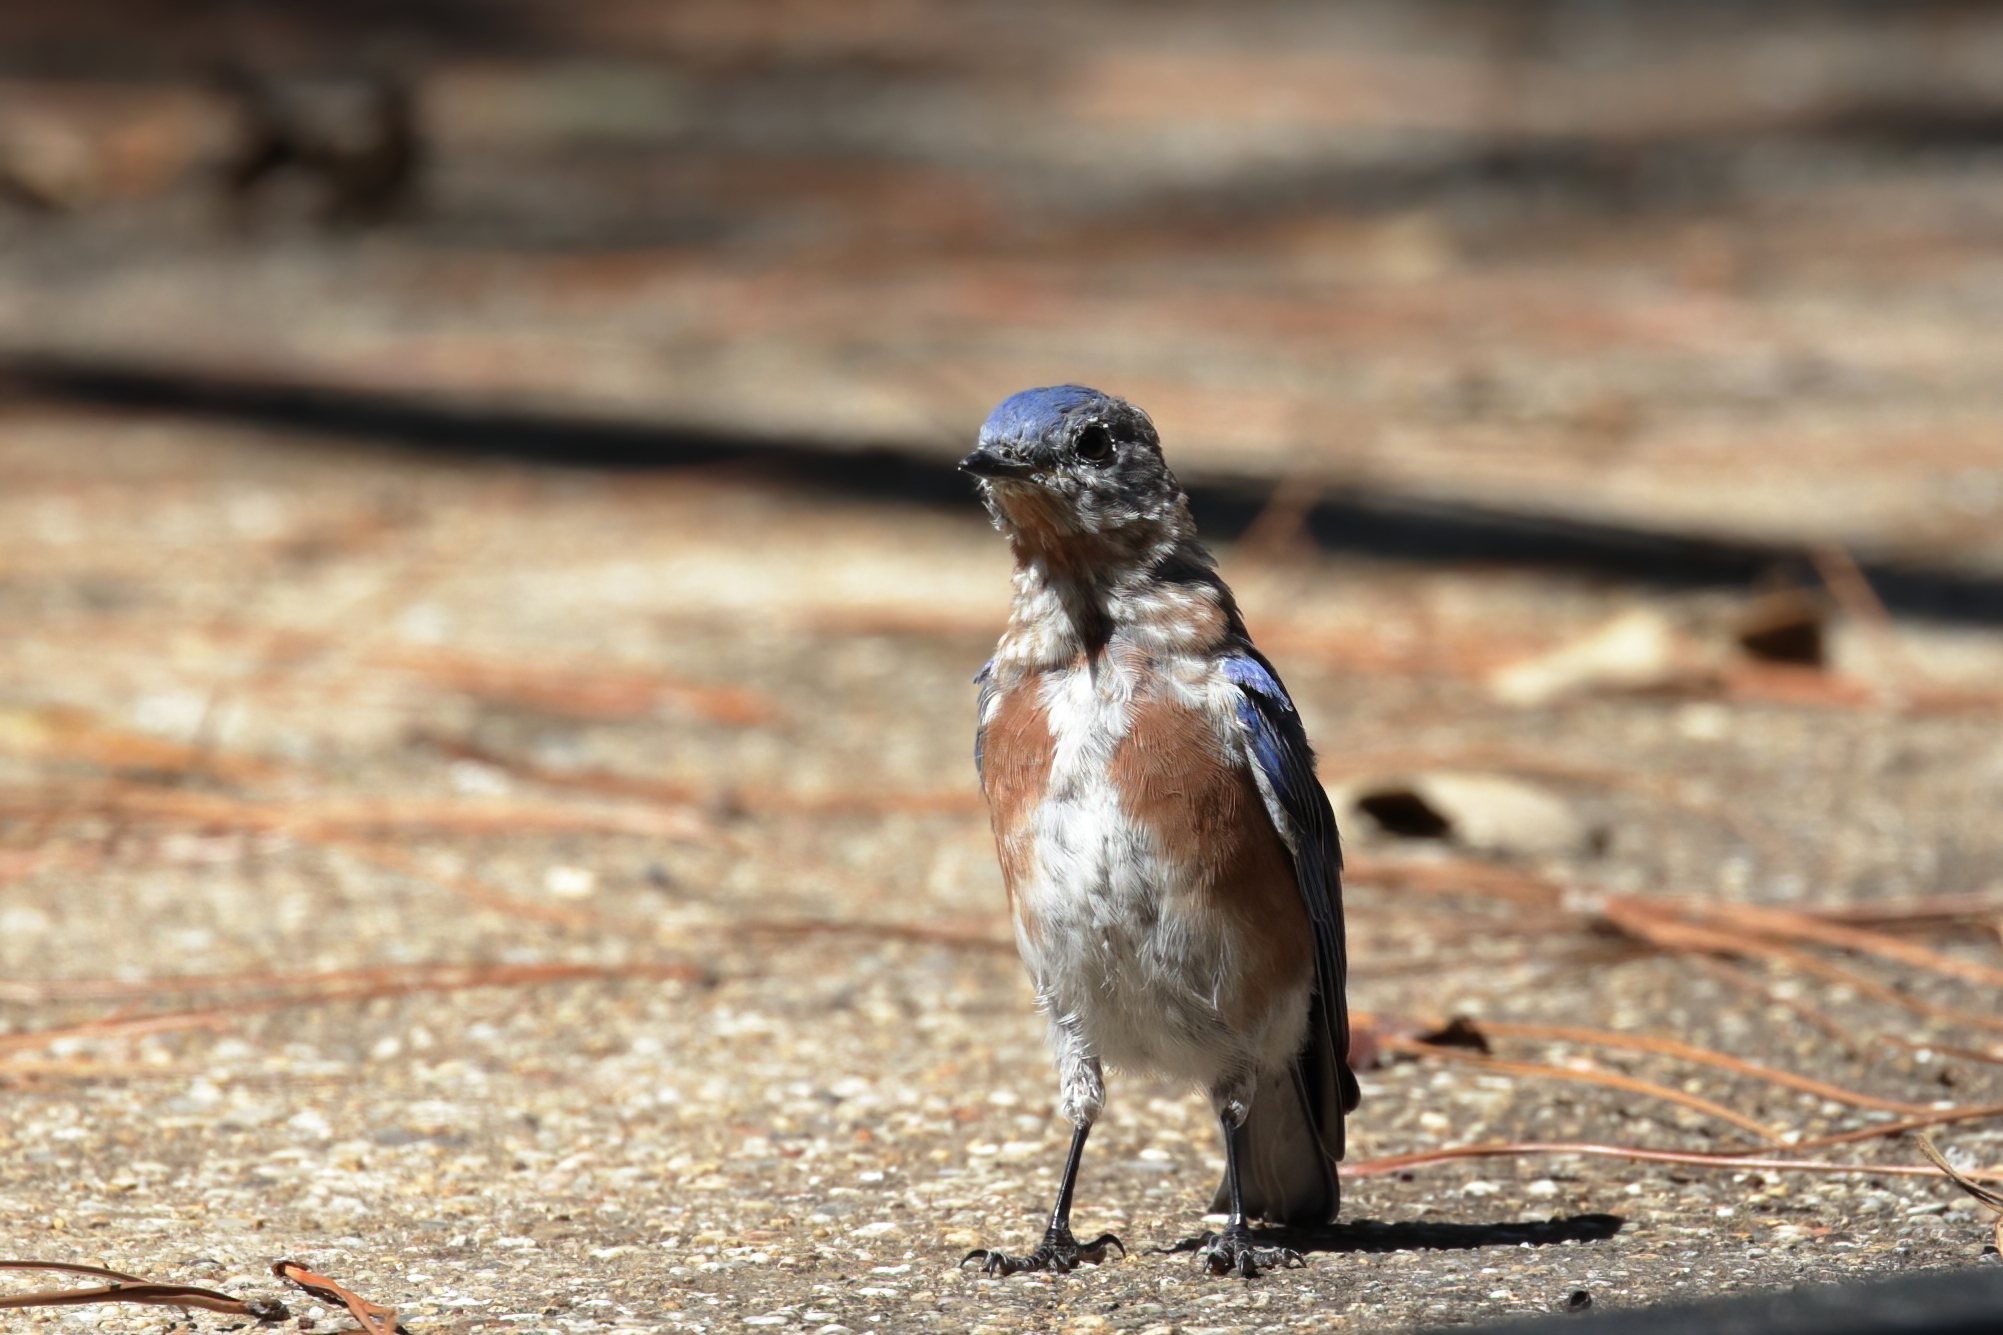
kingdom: Animalia
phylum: Chordata
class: Aves
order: Passeriformes
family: Turdidae
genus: Sialia
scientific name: Sialia sialis
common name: Eastern bluebird
